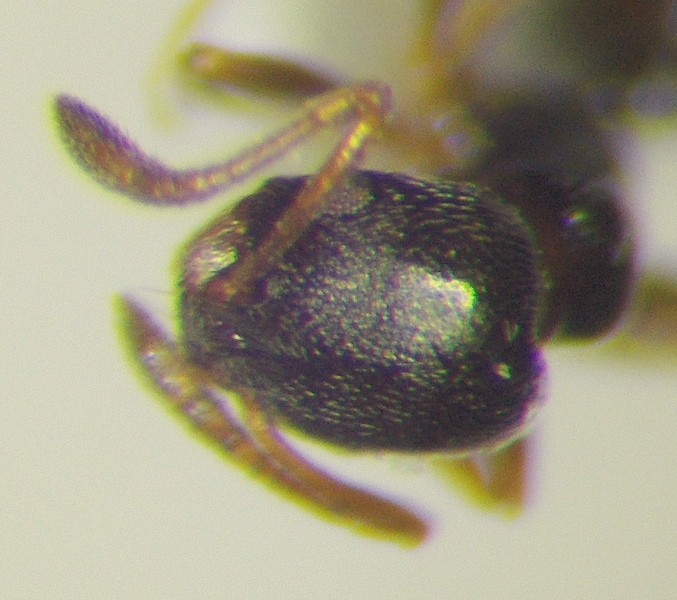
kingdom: Animalia
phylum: Arthropoda
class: Insecta
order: Hymenoptera
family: Formicidae
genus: Cardiocondyla
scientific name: Cardiocondyla stambuloffii
